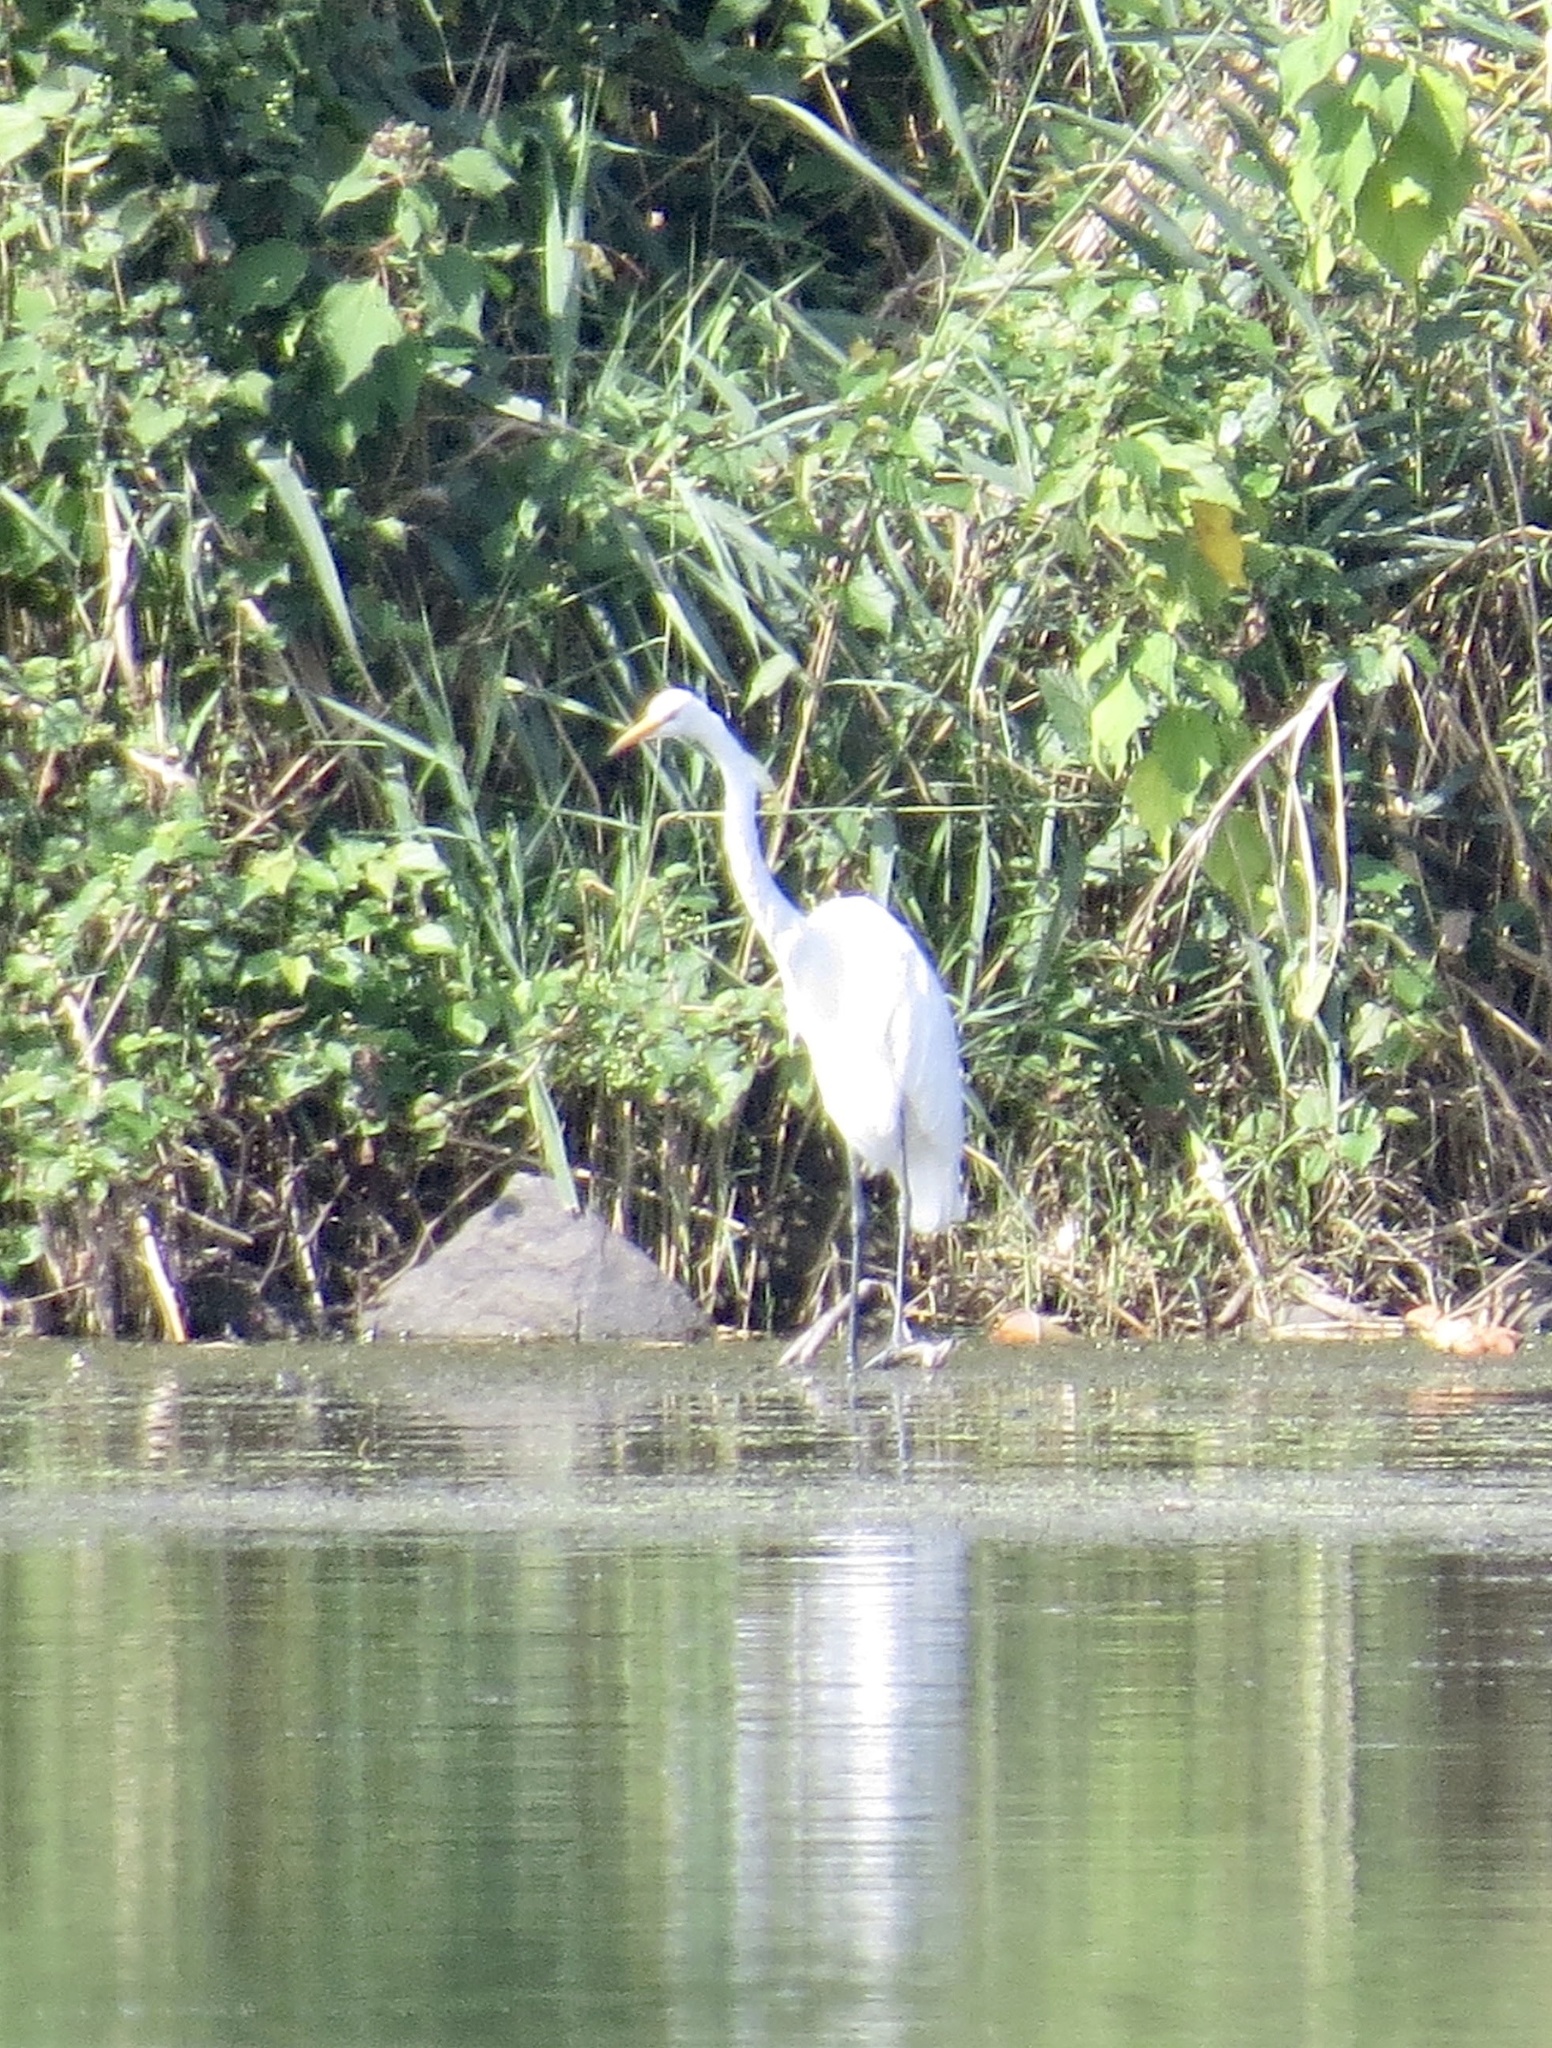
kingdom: Animalia
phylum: Chordata
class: Aves
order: Pelecaniformes
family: Ardeidae
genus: Ardea
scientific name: Ardea alba
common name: Great egret
